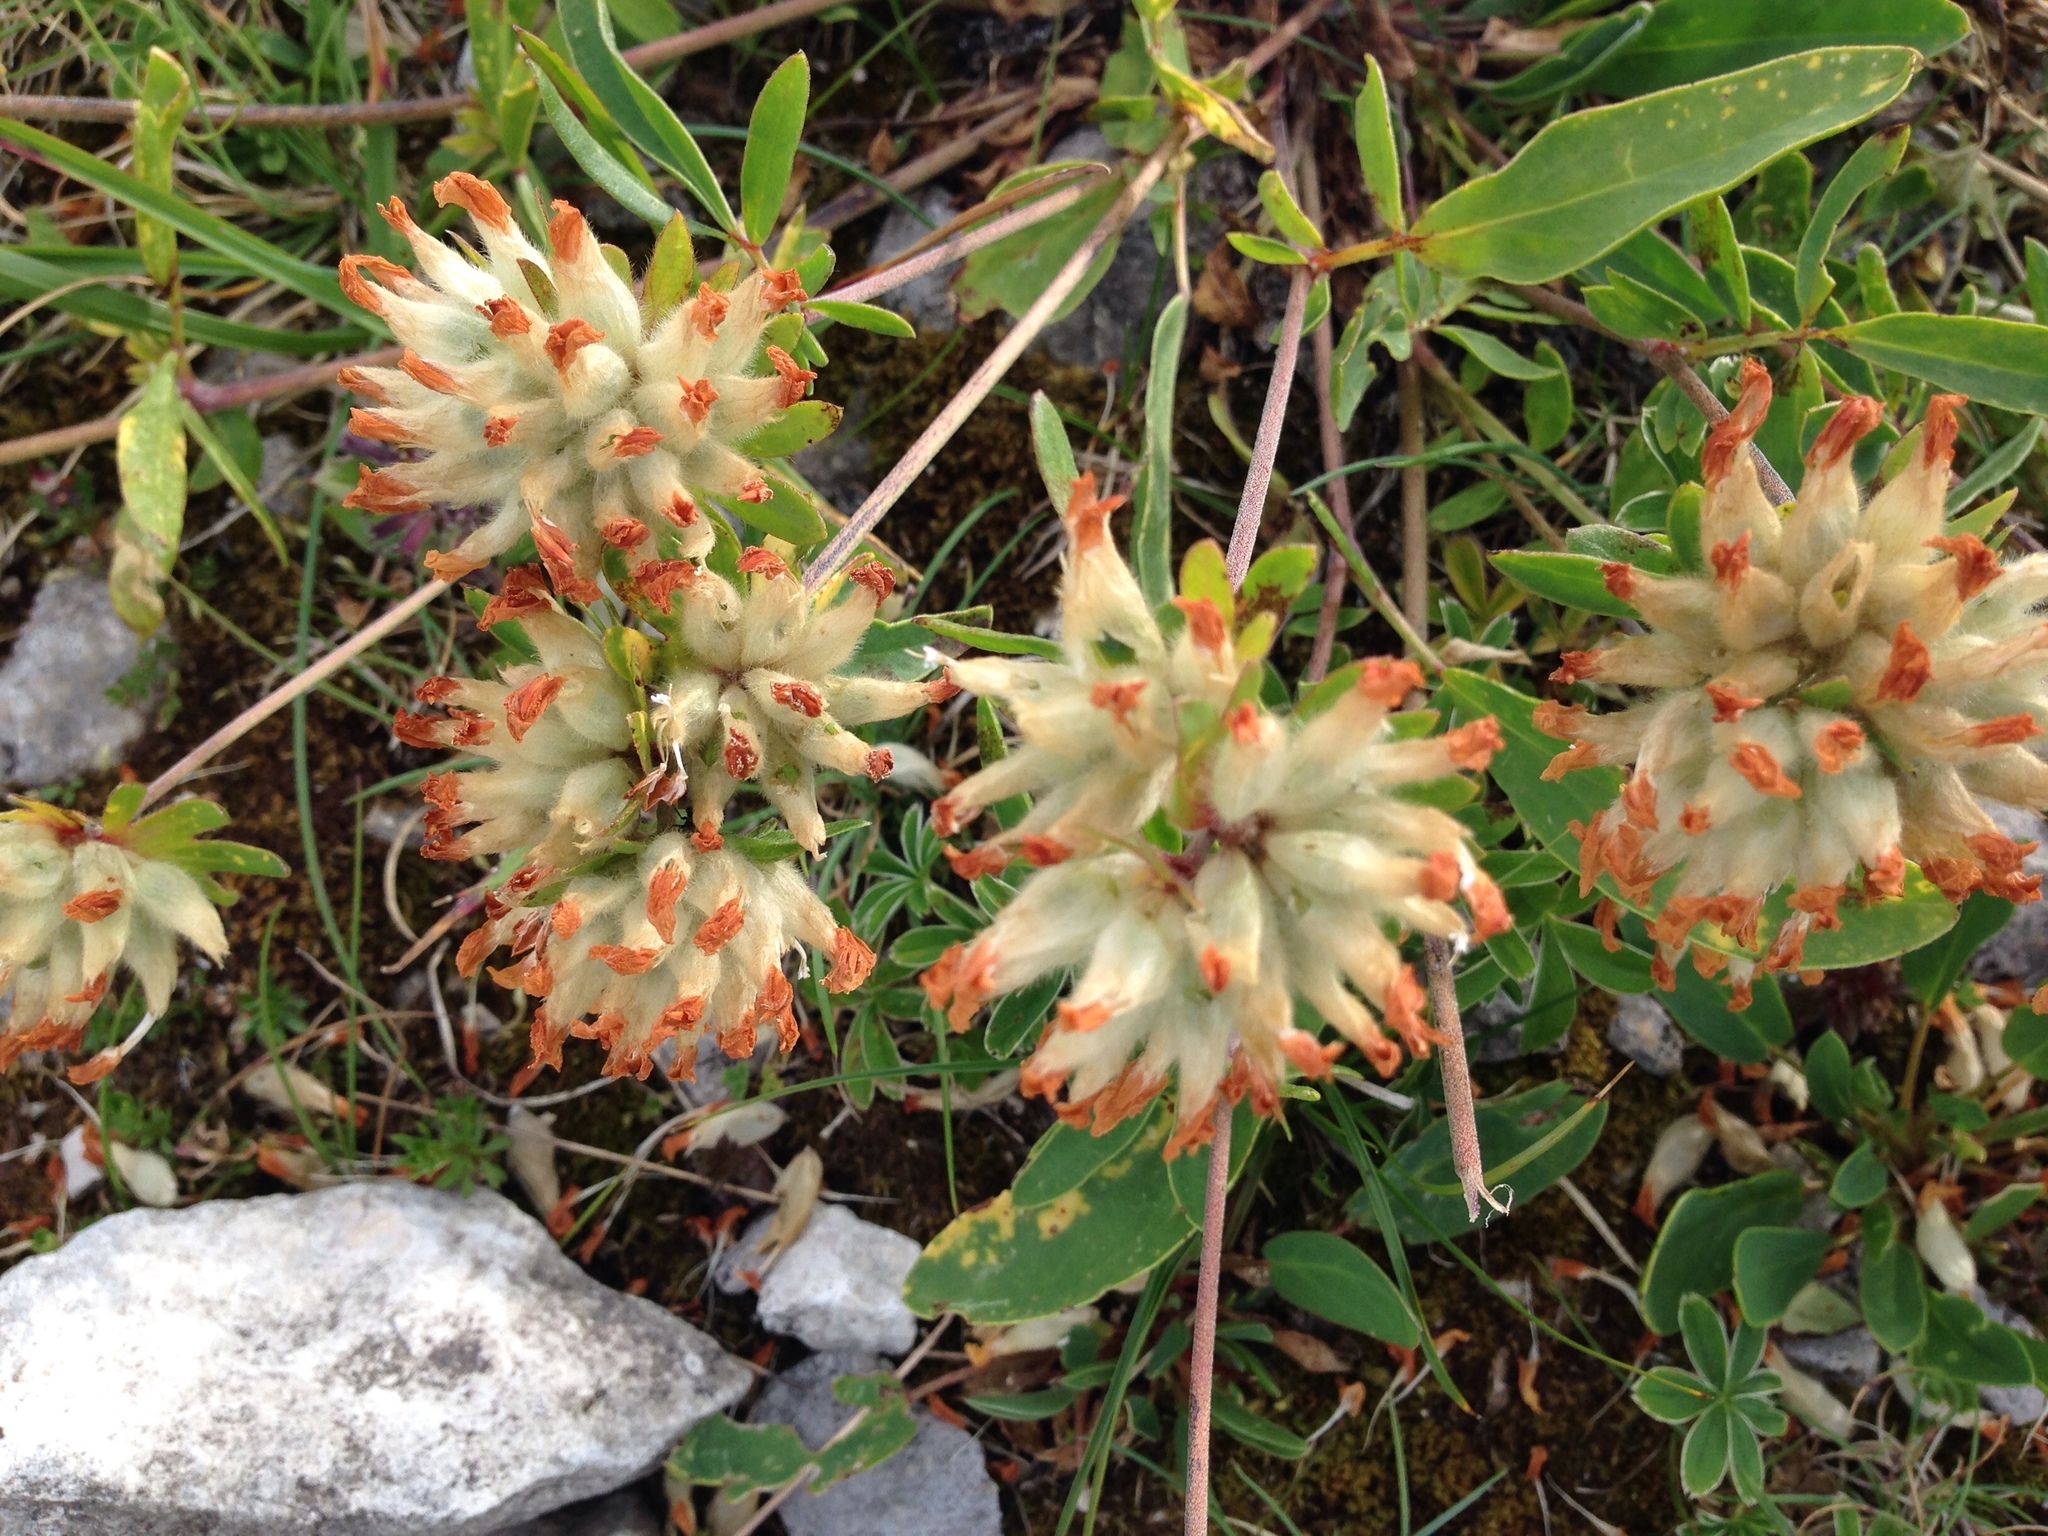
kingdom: Plantae
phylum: Tracheophyta
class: Magnoliopsida
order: Fabales
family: Fabaceae
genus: Anthyllis
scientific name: Anthyllis vulneraria
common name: Kidney vetch
